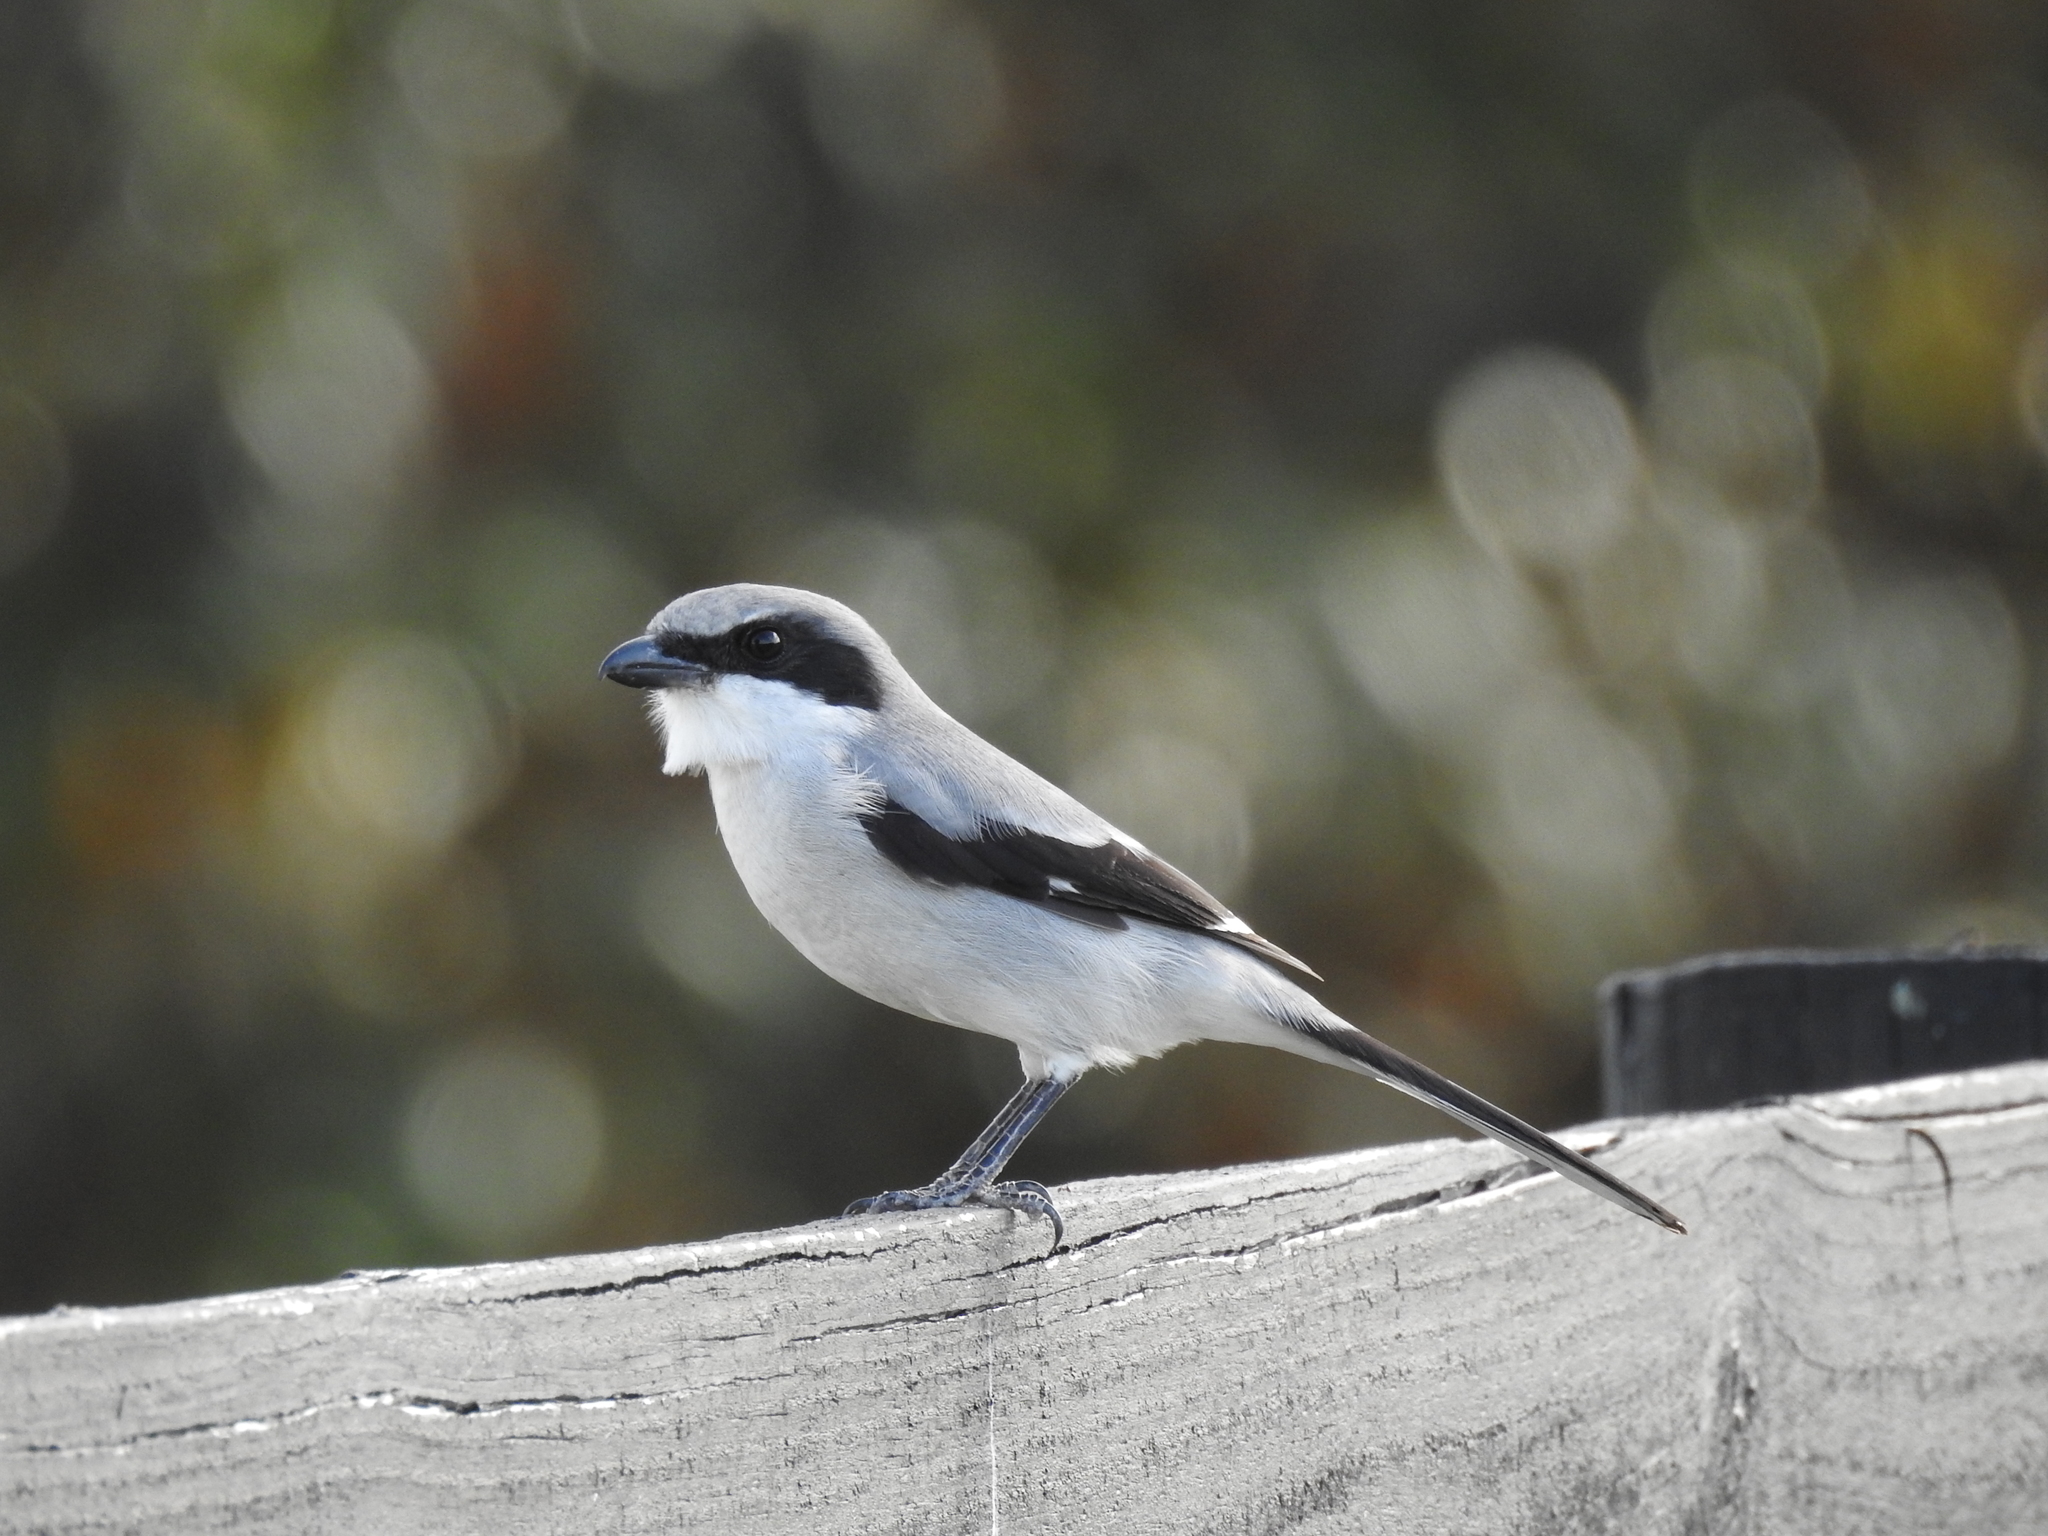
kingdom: Animalia
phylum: Chordata
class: Aves
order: Passeriformes
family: Laniidae
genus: Lanius
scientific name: Lanius ludovicianus
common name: Loggerhead shrike
